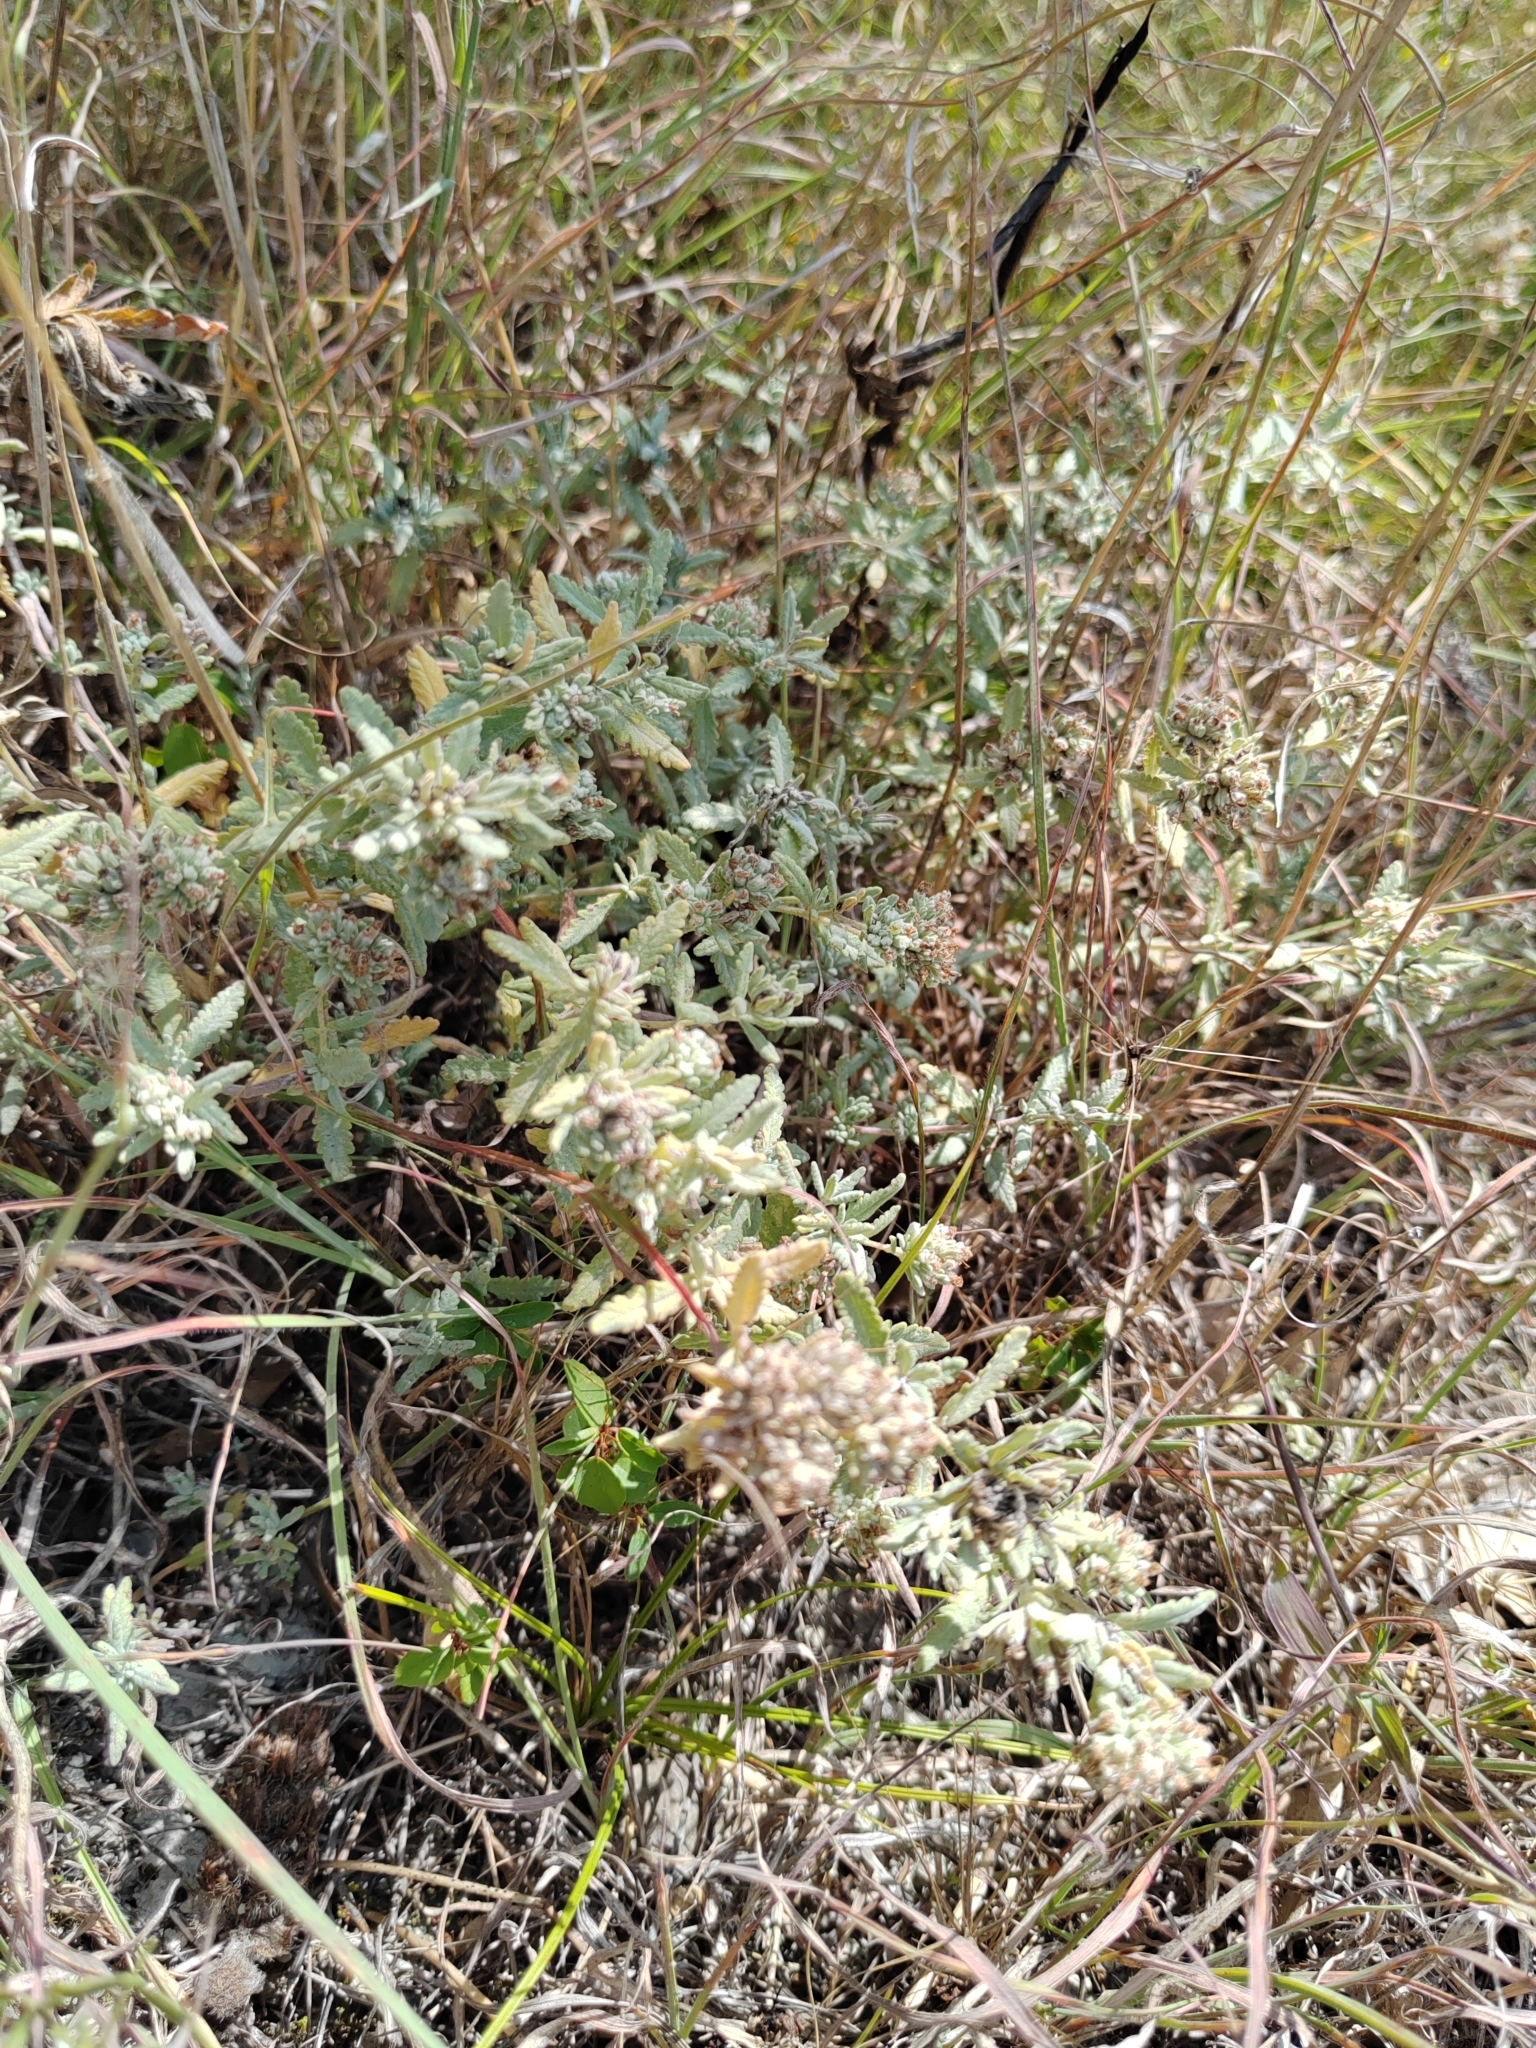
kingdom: Plantae
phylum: Tracheophyta
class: Magnoliopsida
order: Lamiales
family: Lamiaceae
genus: Teucrium
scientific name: Teucrium polium
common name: Poley
